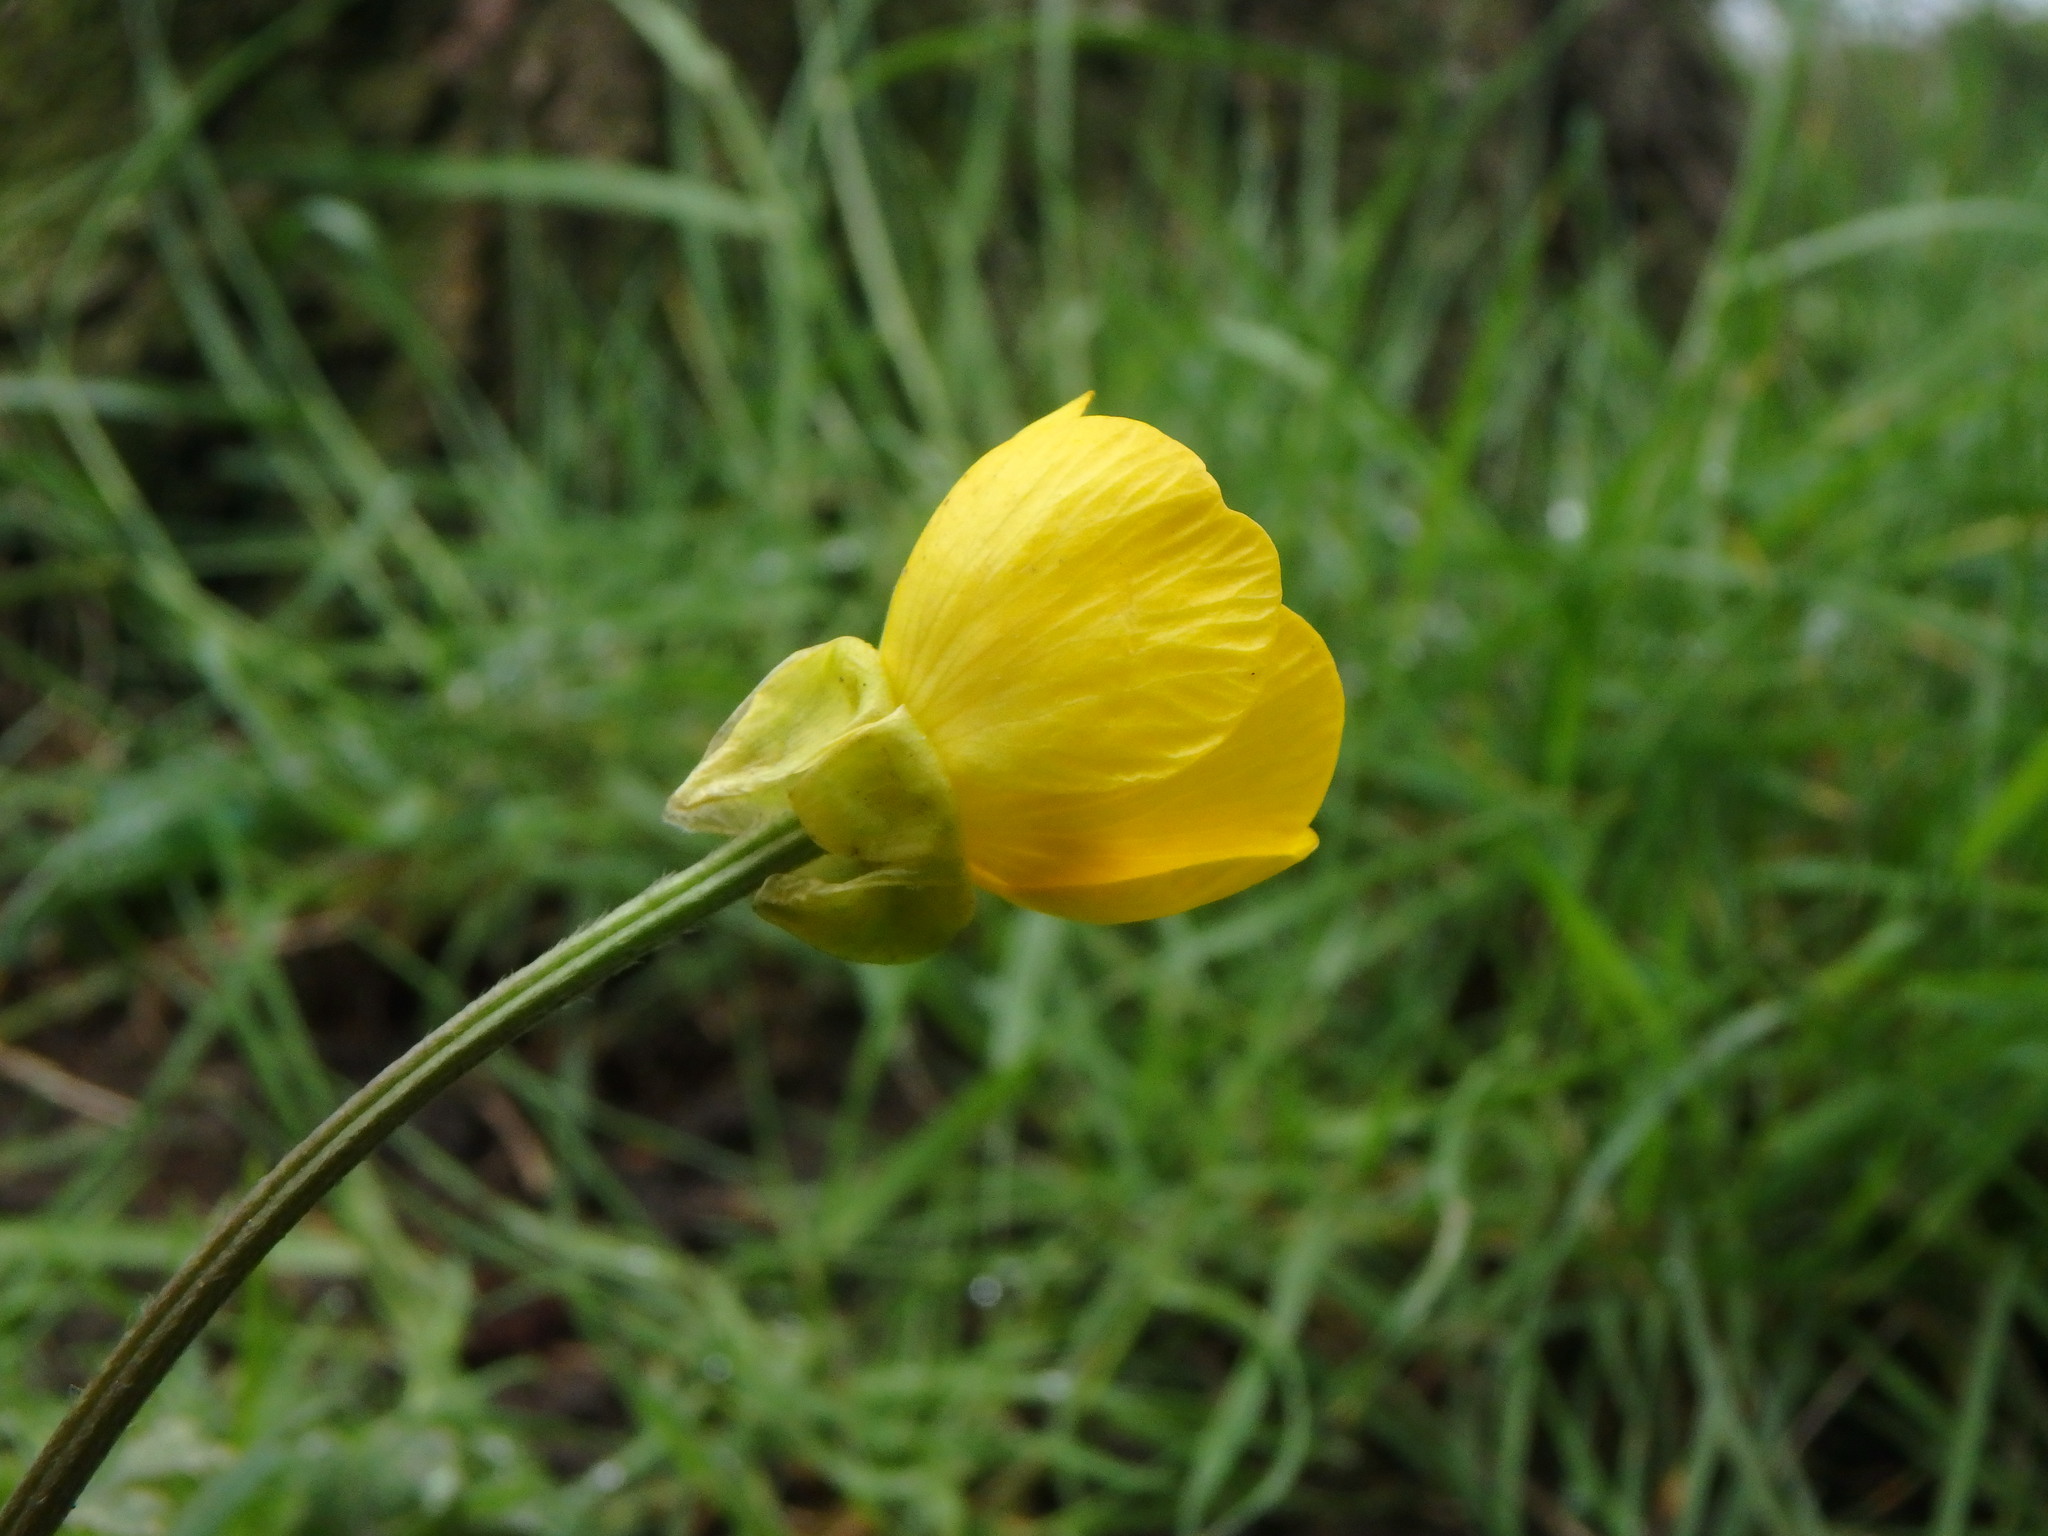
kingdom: Plantae
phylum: Tracheophyta
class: Magnoliopsida
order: Ranunculales
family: Ranunculaceae
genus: Ranunculus
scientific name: Ranunculus bulbosus
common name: Bulbous buttercup
